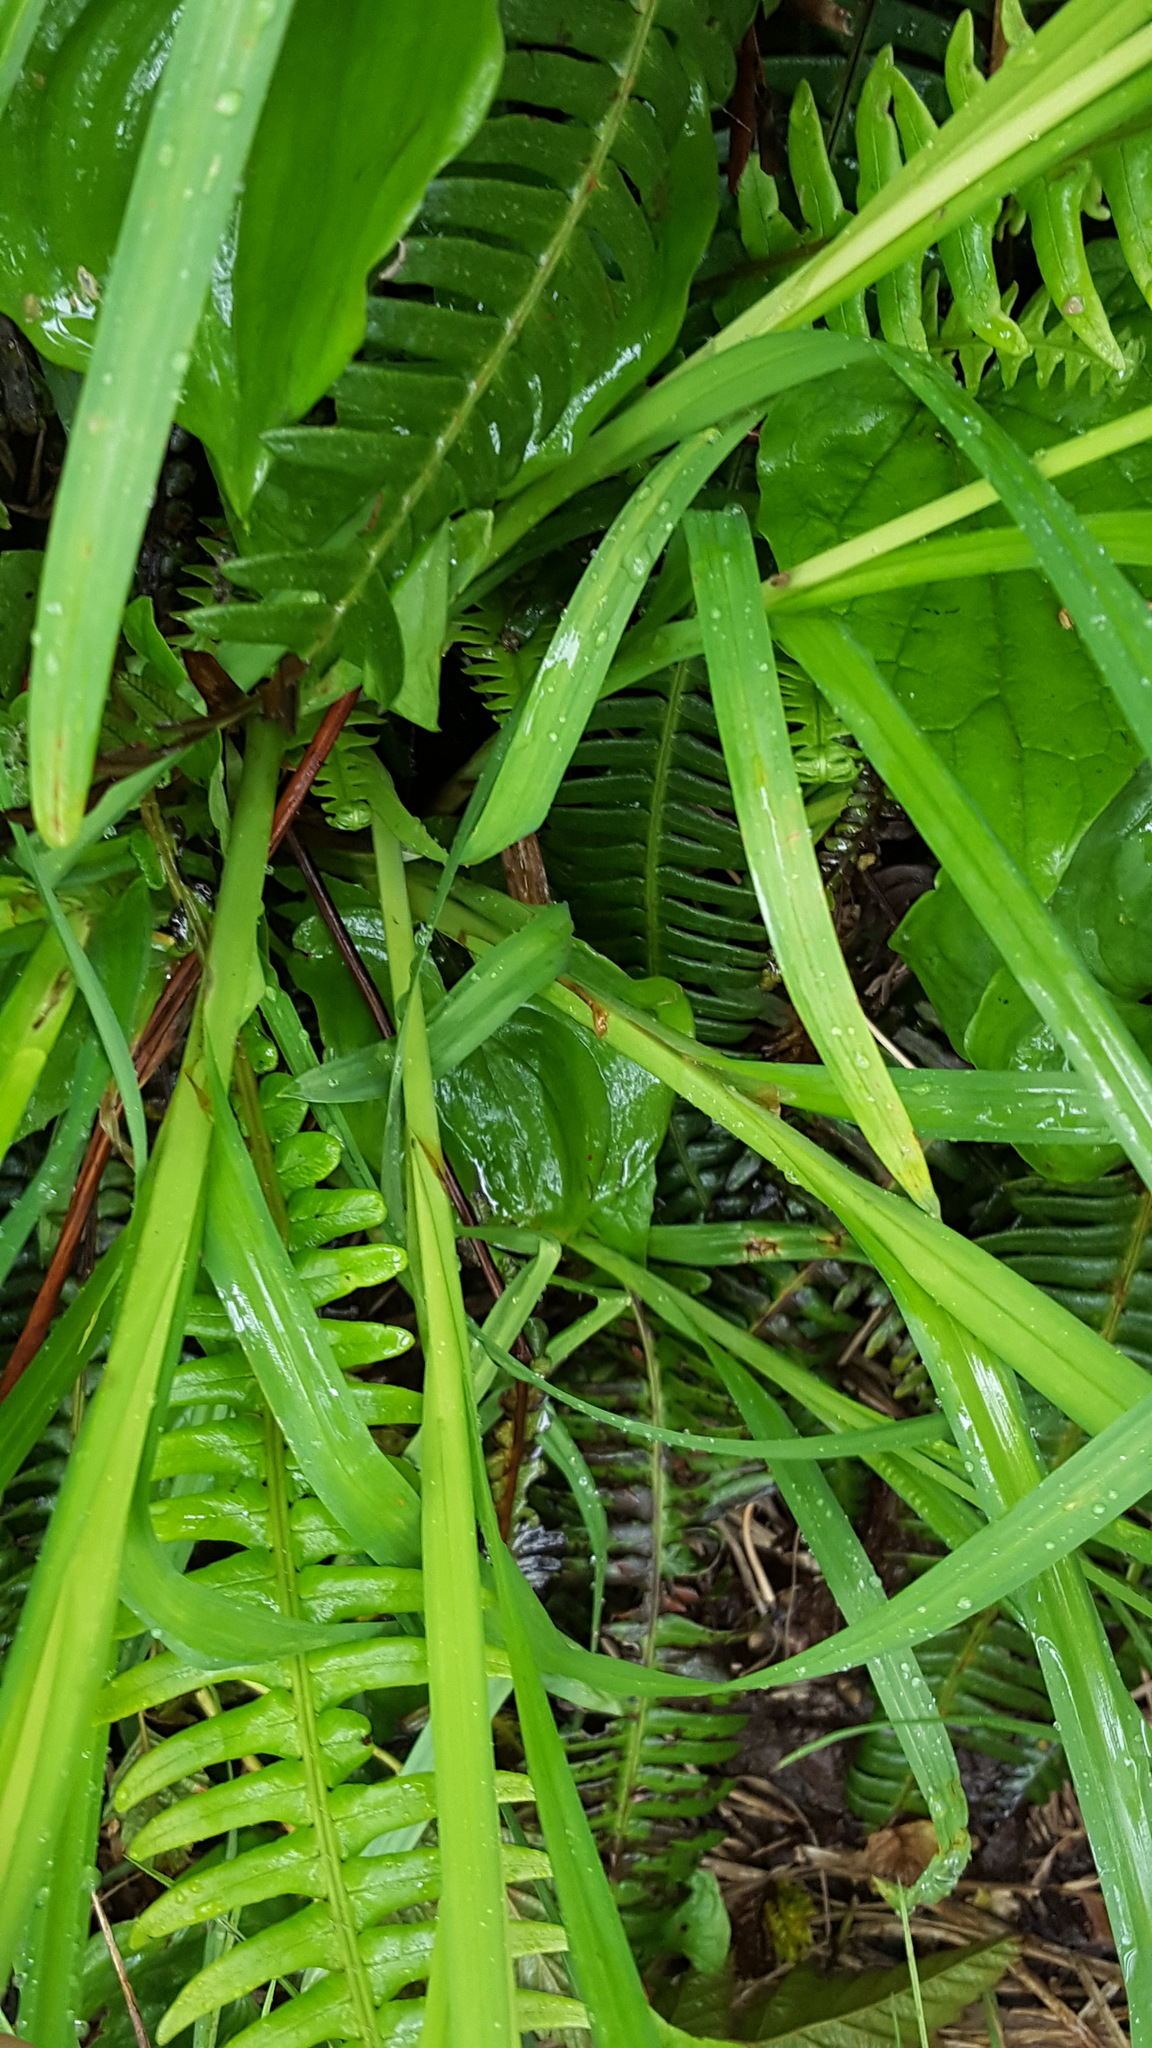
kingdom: Plantae
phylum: Tracheophyta
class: Liliopsida
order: Poales
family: Cyperaceae
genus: Carex
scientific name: Carex mertensii
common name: Mertens' sedge
